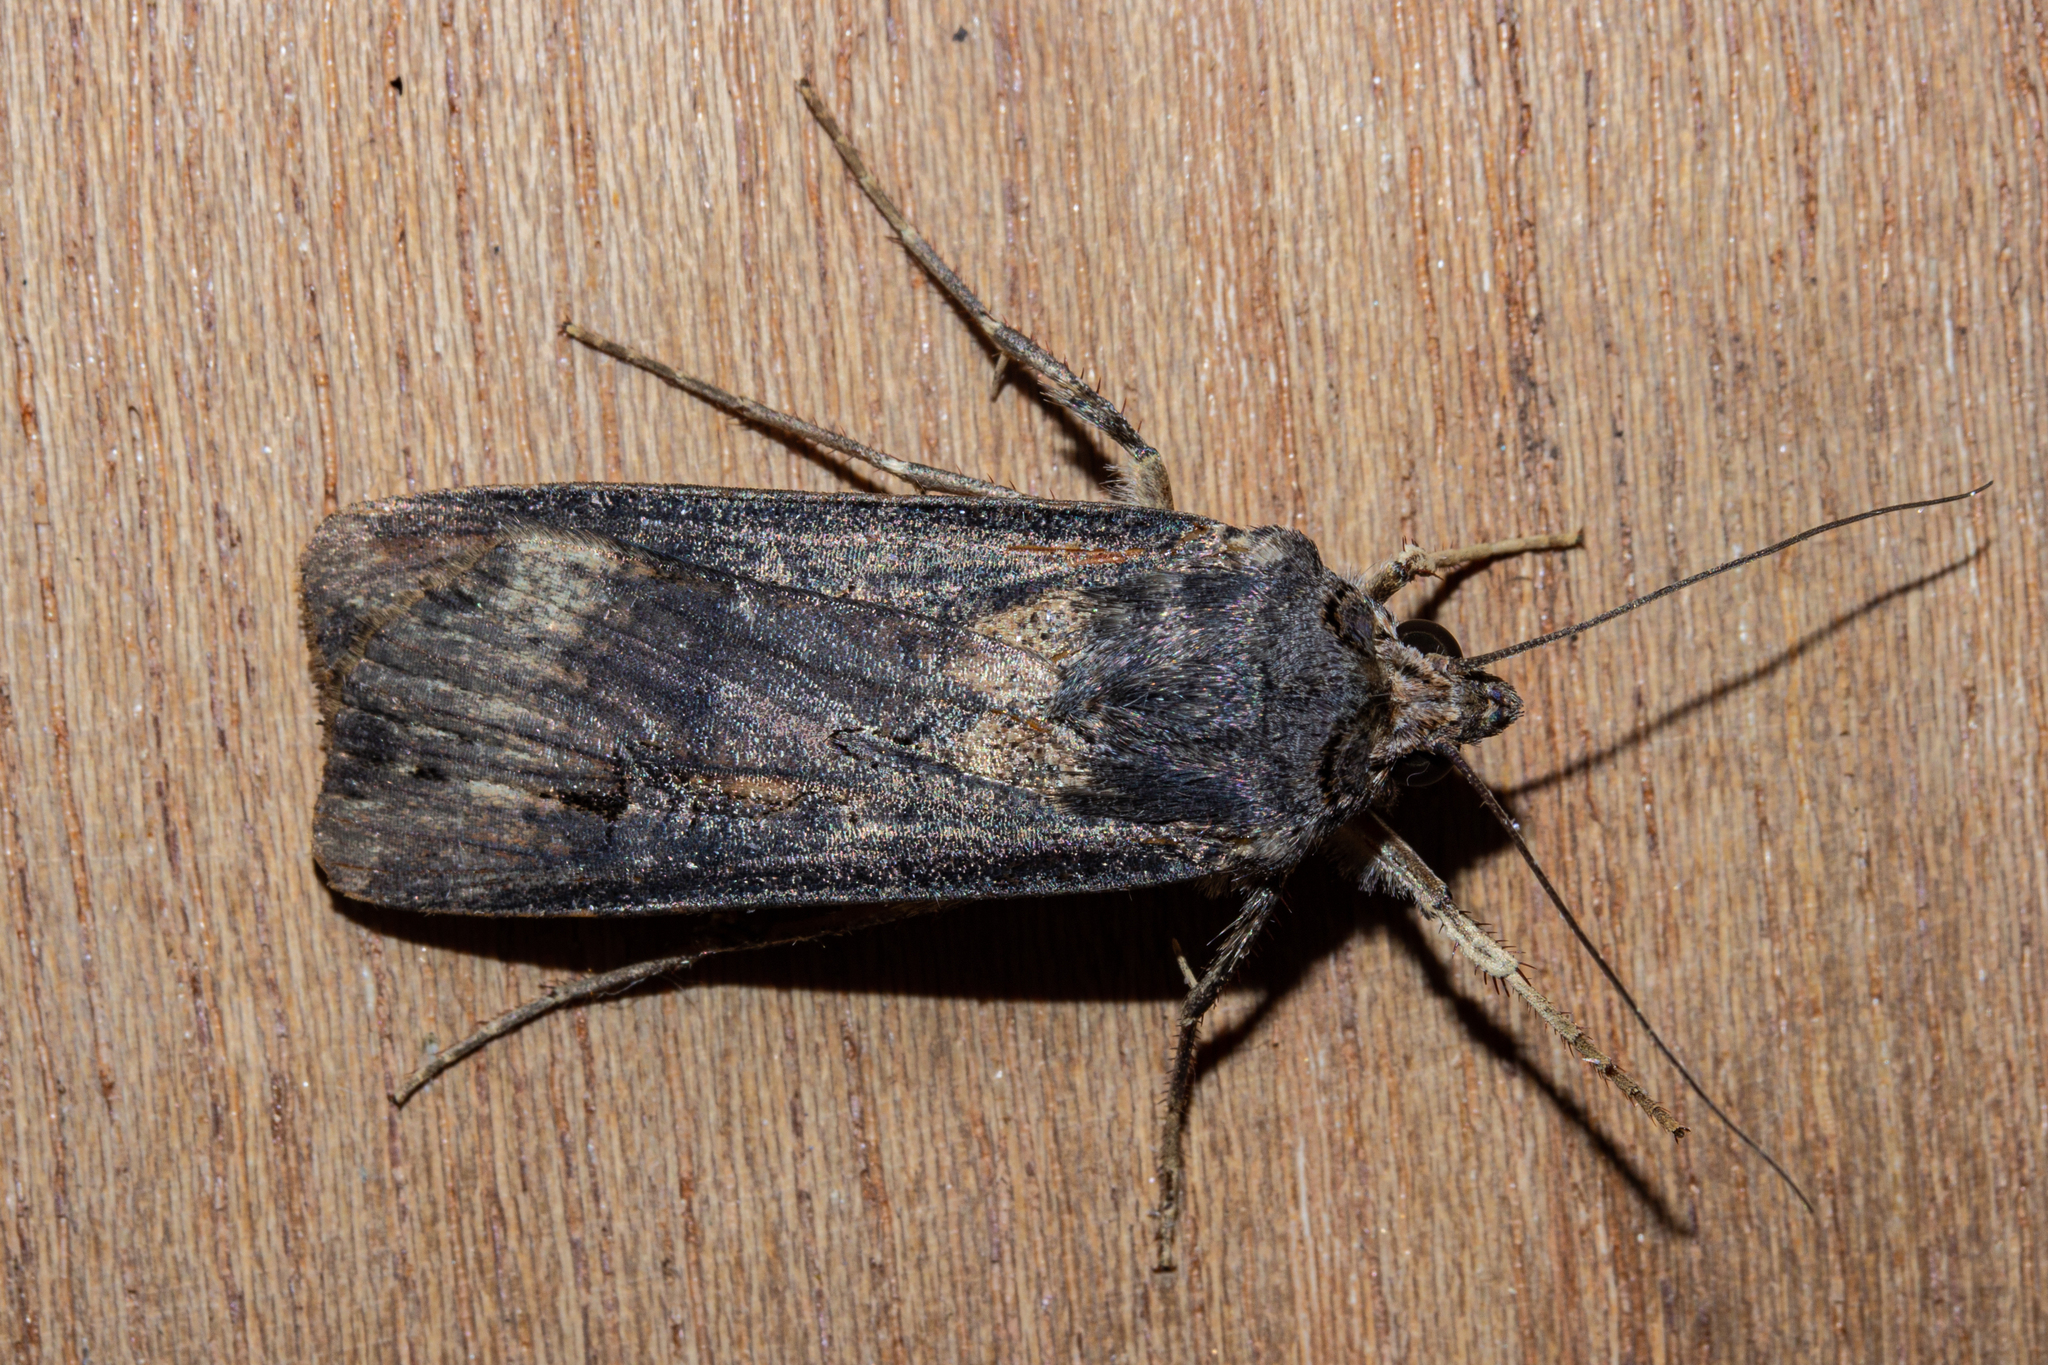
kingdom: Animalia
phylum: Arthropoda
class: Insecta
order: Lepidoptera
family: Noctuidae
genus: Agrotis
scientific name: Agrotis ipsilon
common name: Dark sword-grass
